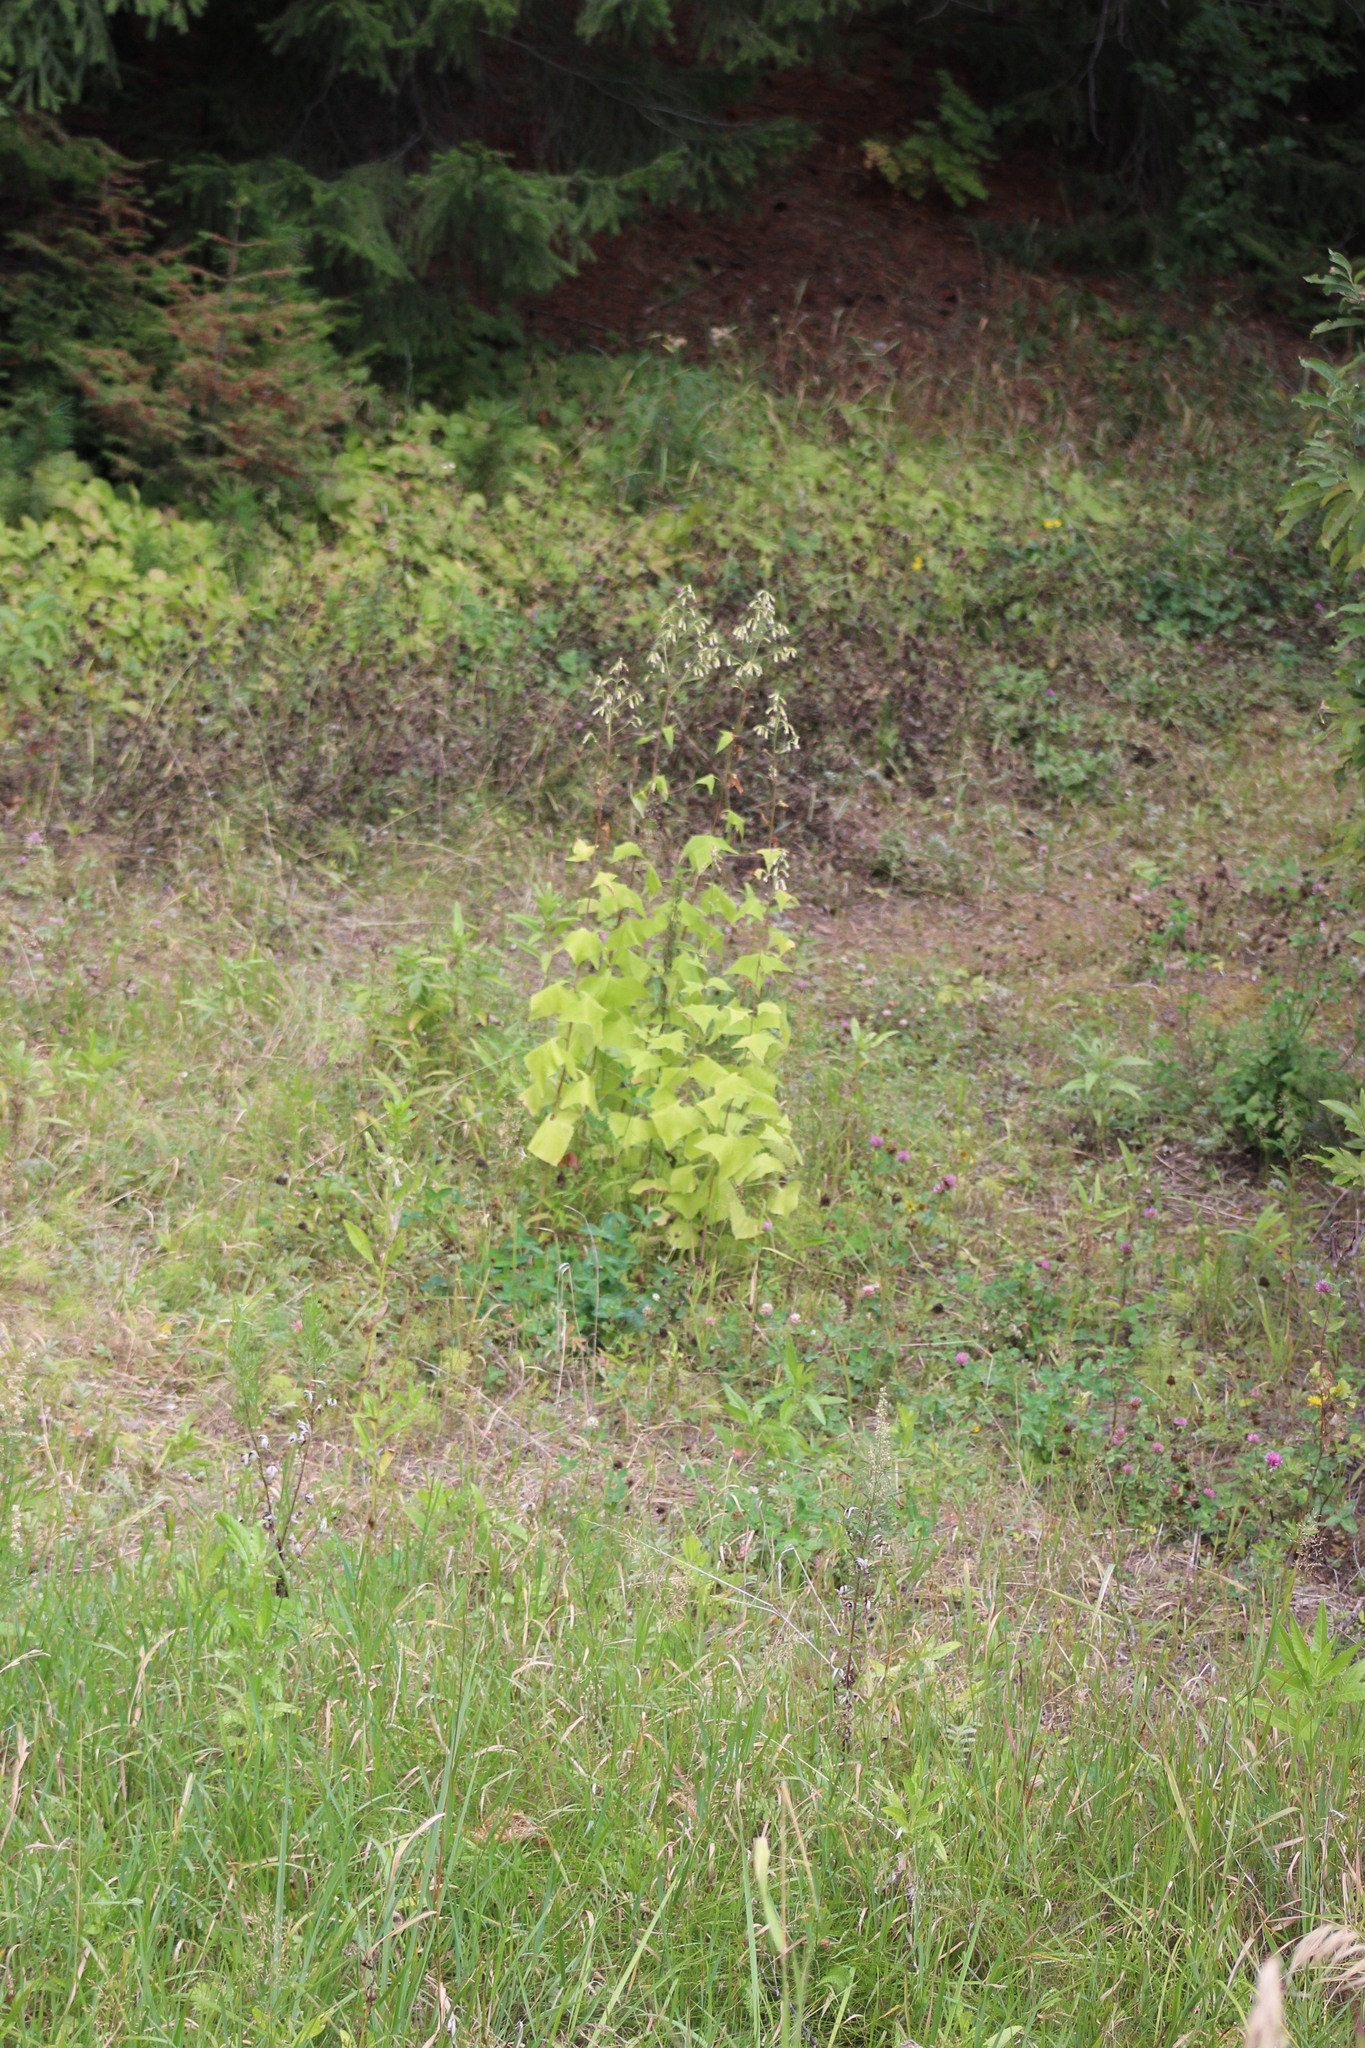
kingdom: Plantae
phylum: Tracheophyta
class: Magnoliopsida
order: Asterales
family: Asteraceae
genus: Parasenecio
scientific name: Parasenecio hastatus
